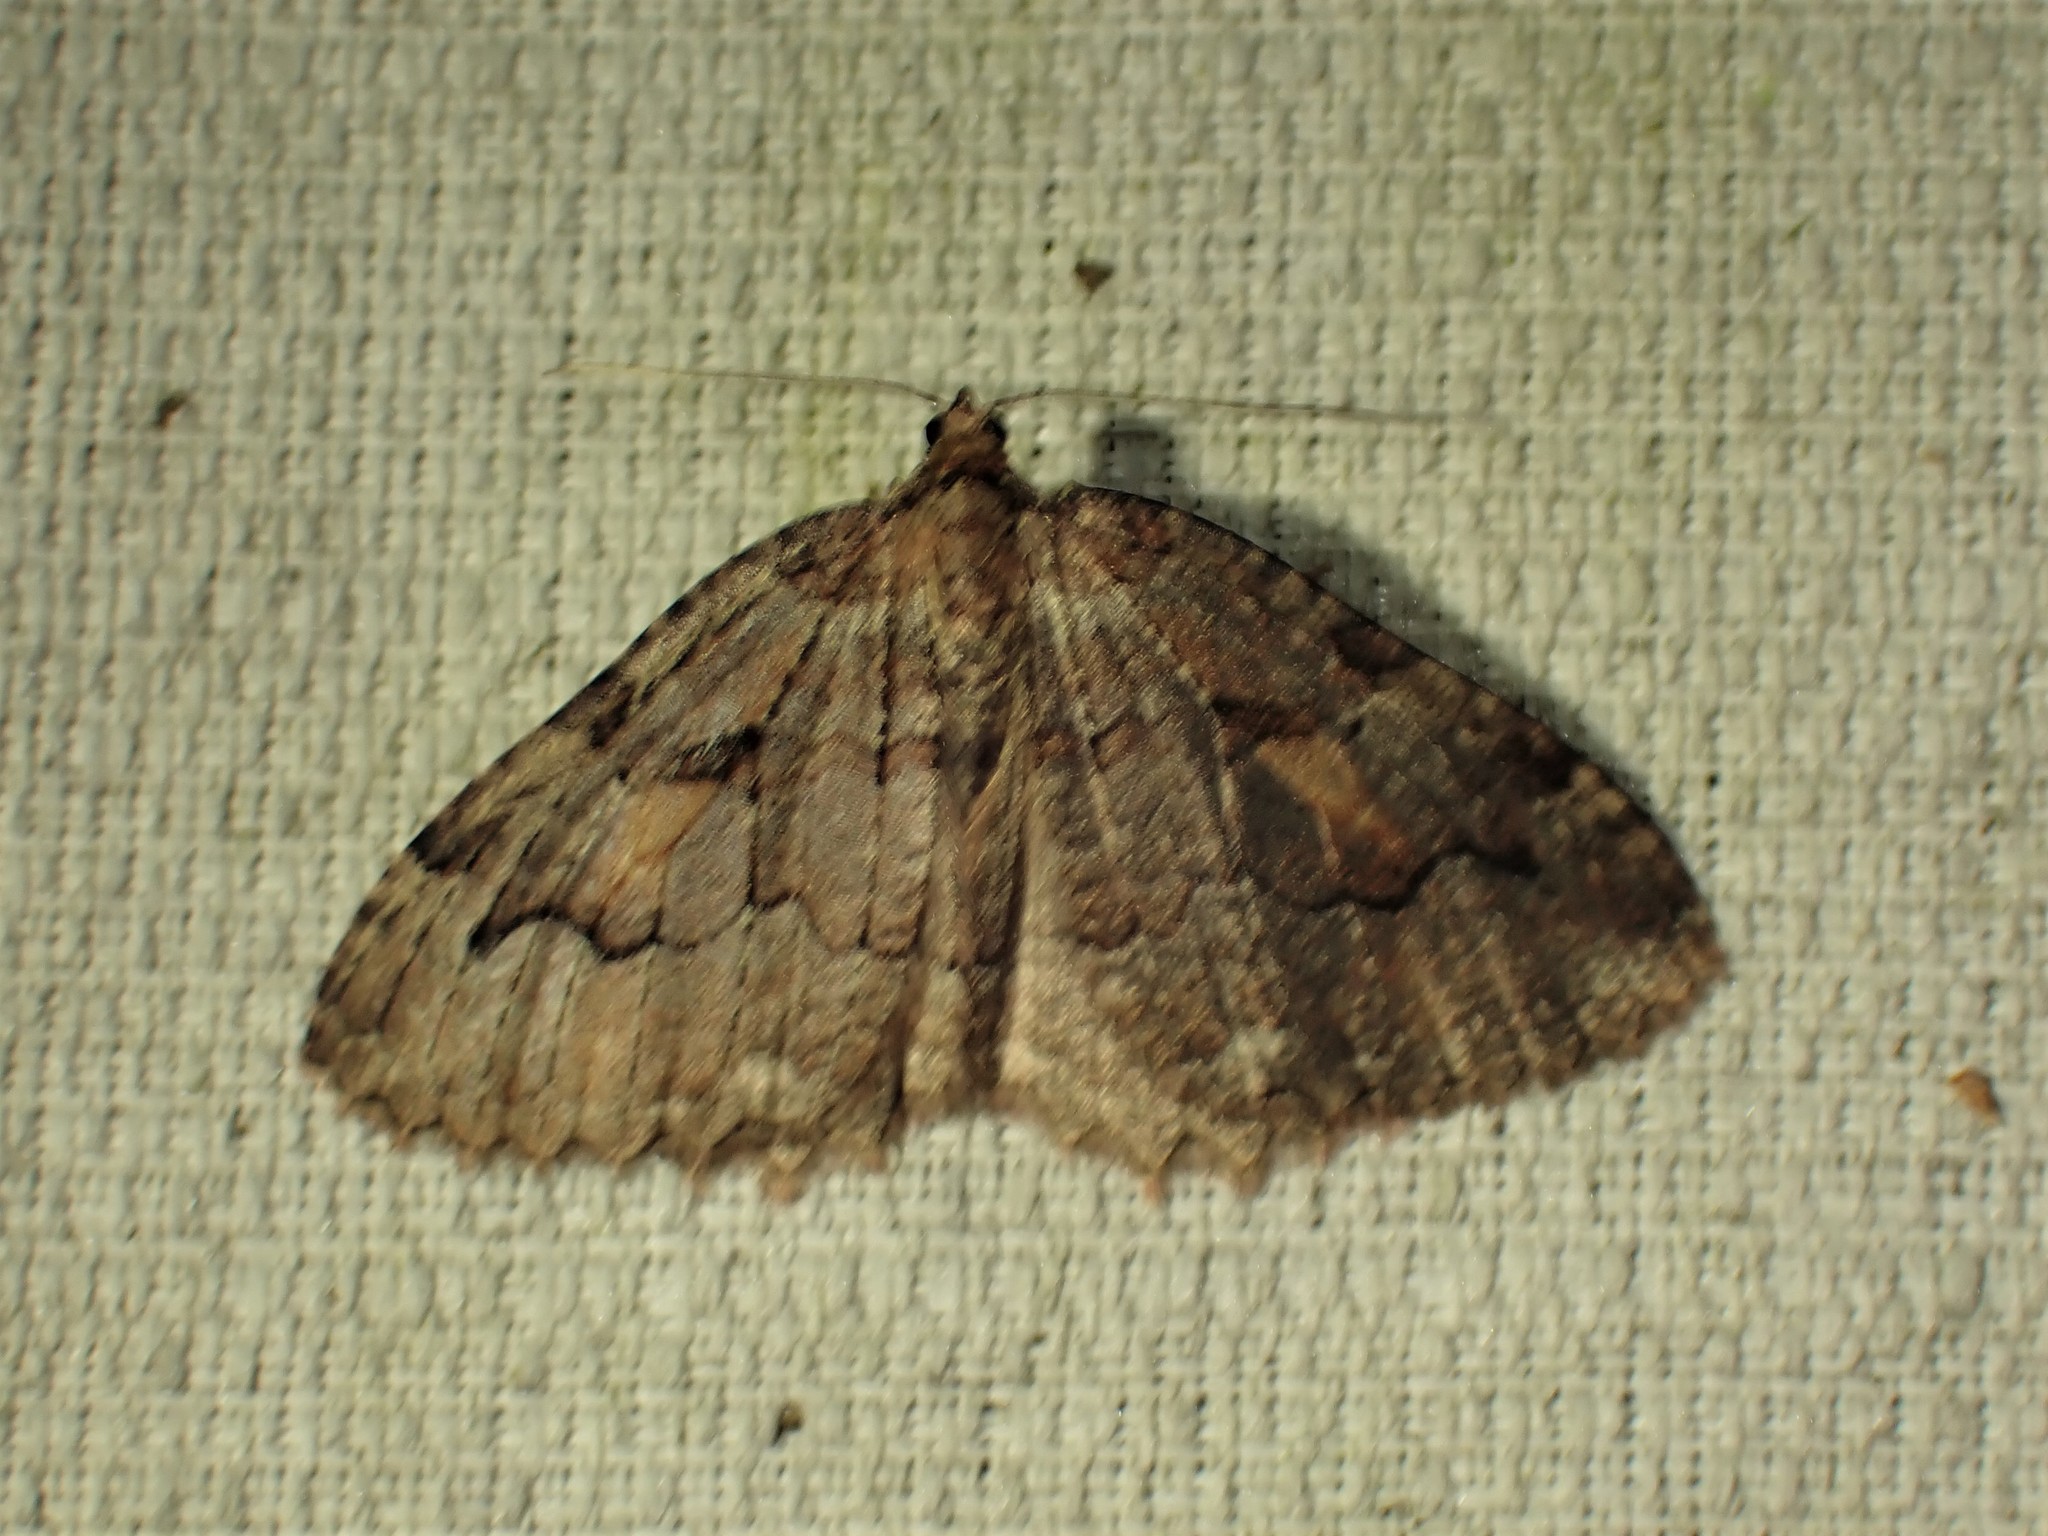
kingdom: Animalia
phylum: Arthropoda
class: Insecta
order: Lepidoptera
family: Geometridae
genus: Triphosa
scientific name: Triphosa haesitata
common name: Tissue moth
